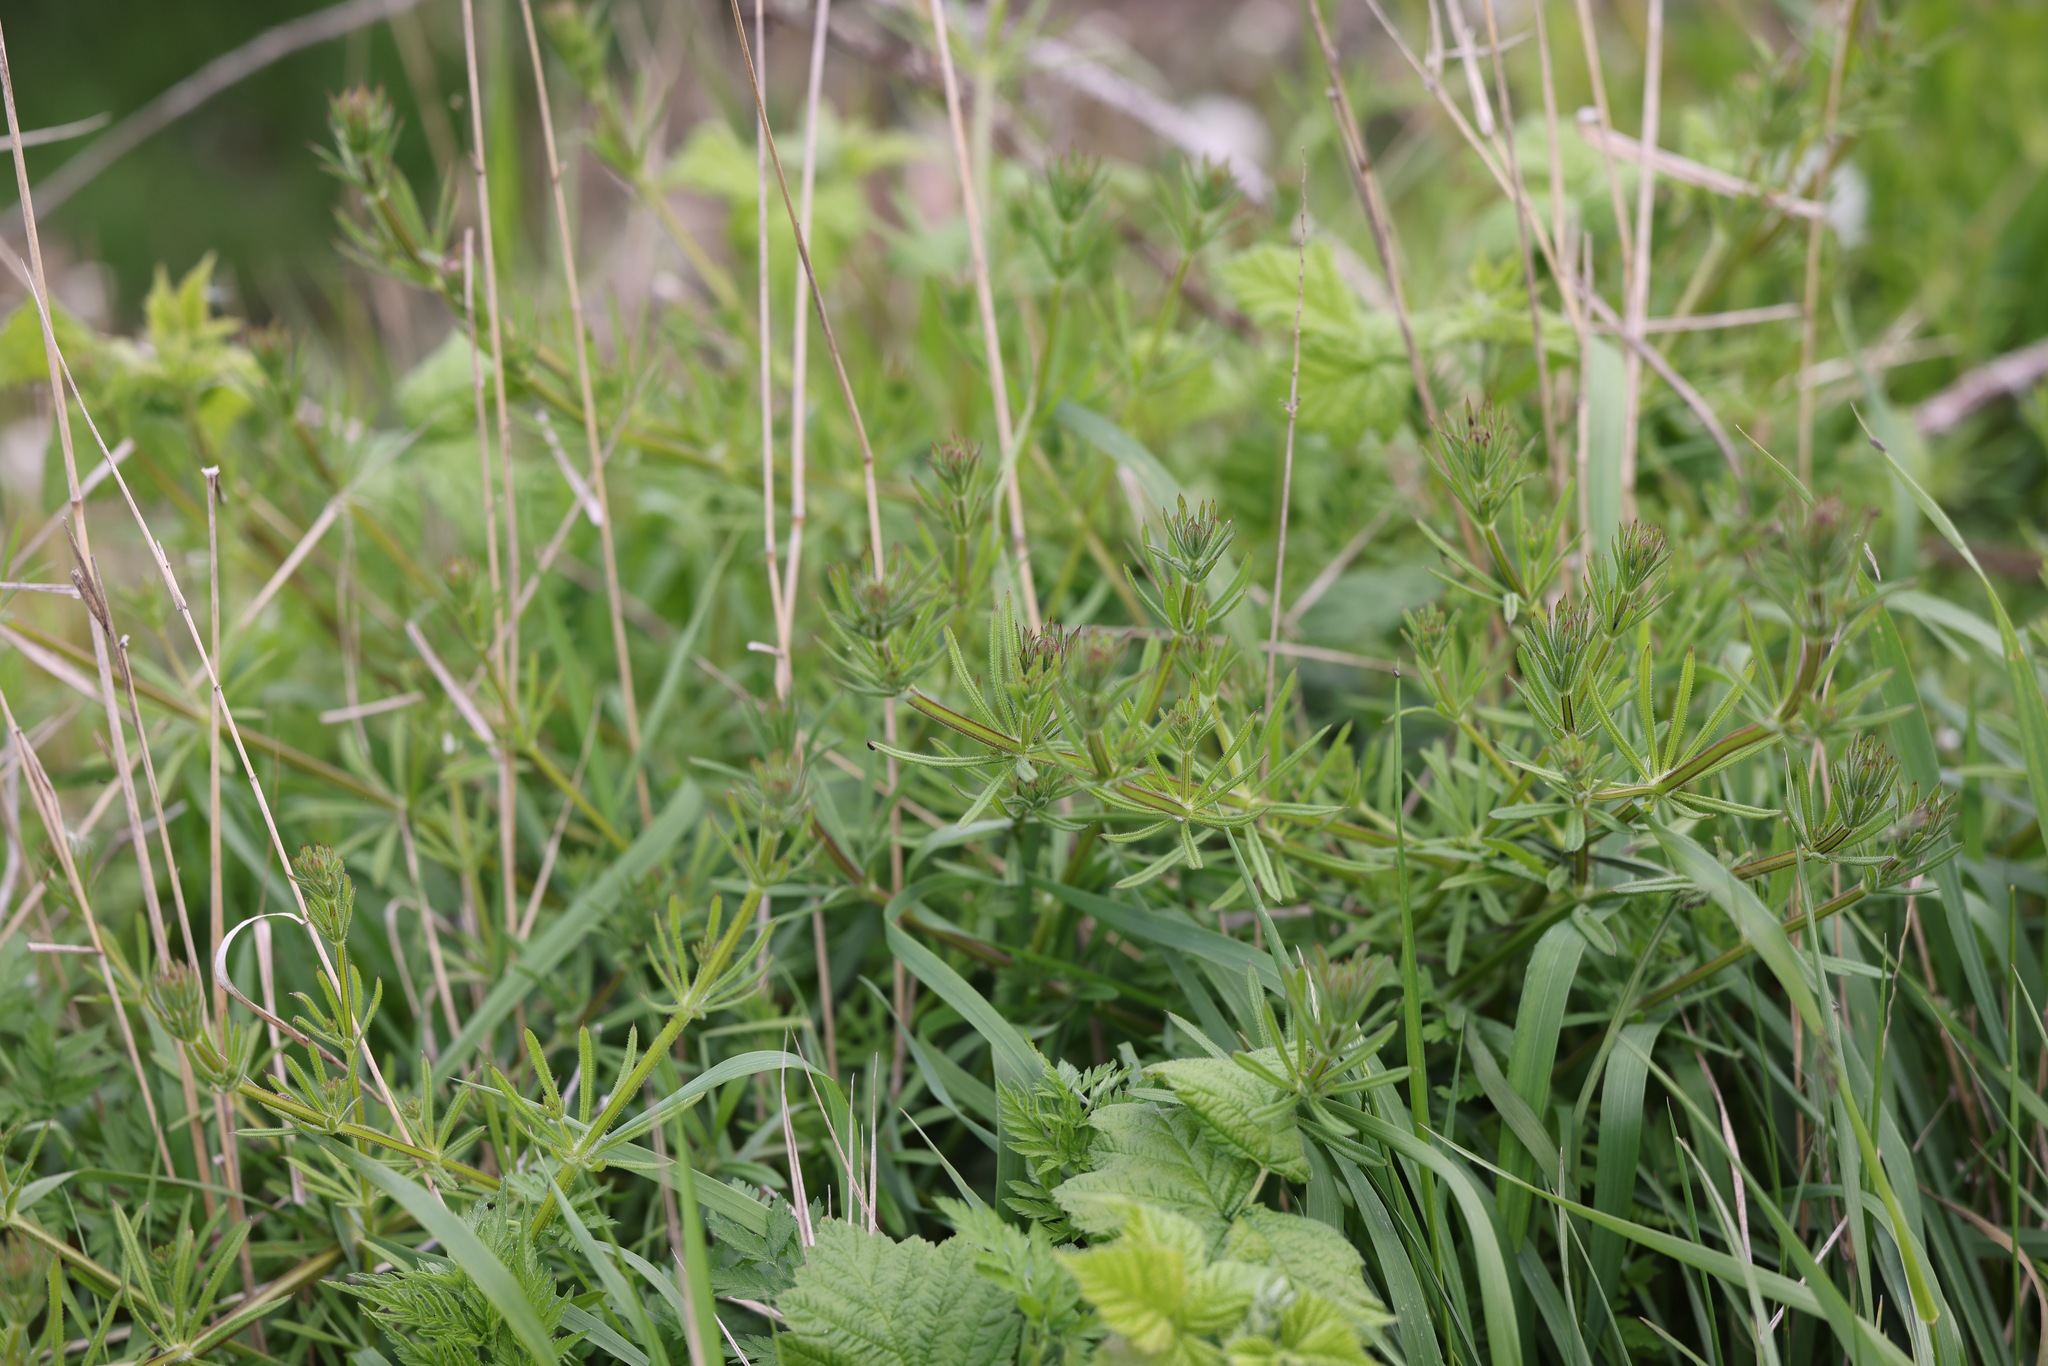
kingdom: Plantae
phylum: Tracheophyta
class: Magnoliopsida
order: Gentianales
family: Rubiaceae
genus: Galium
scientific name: Galium aparine
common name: Cleavers
